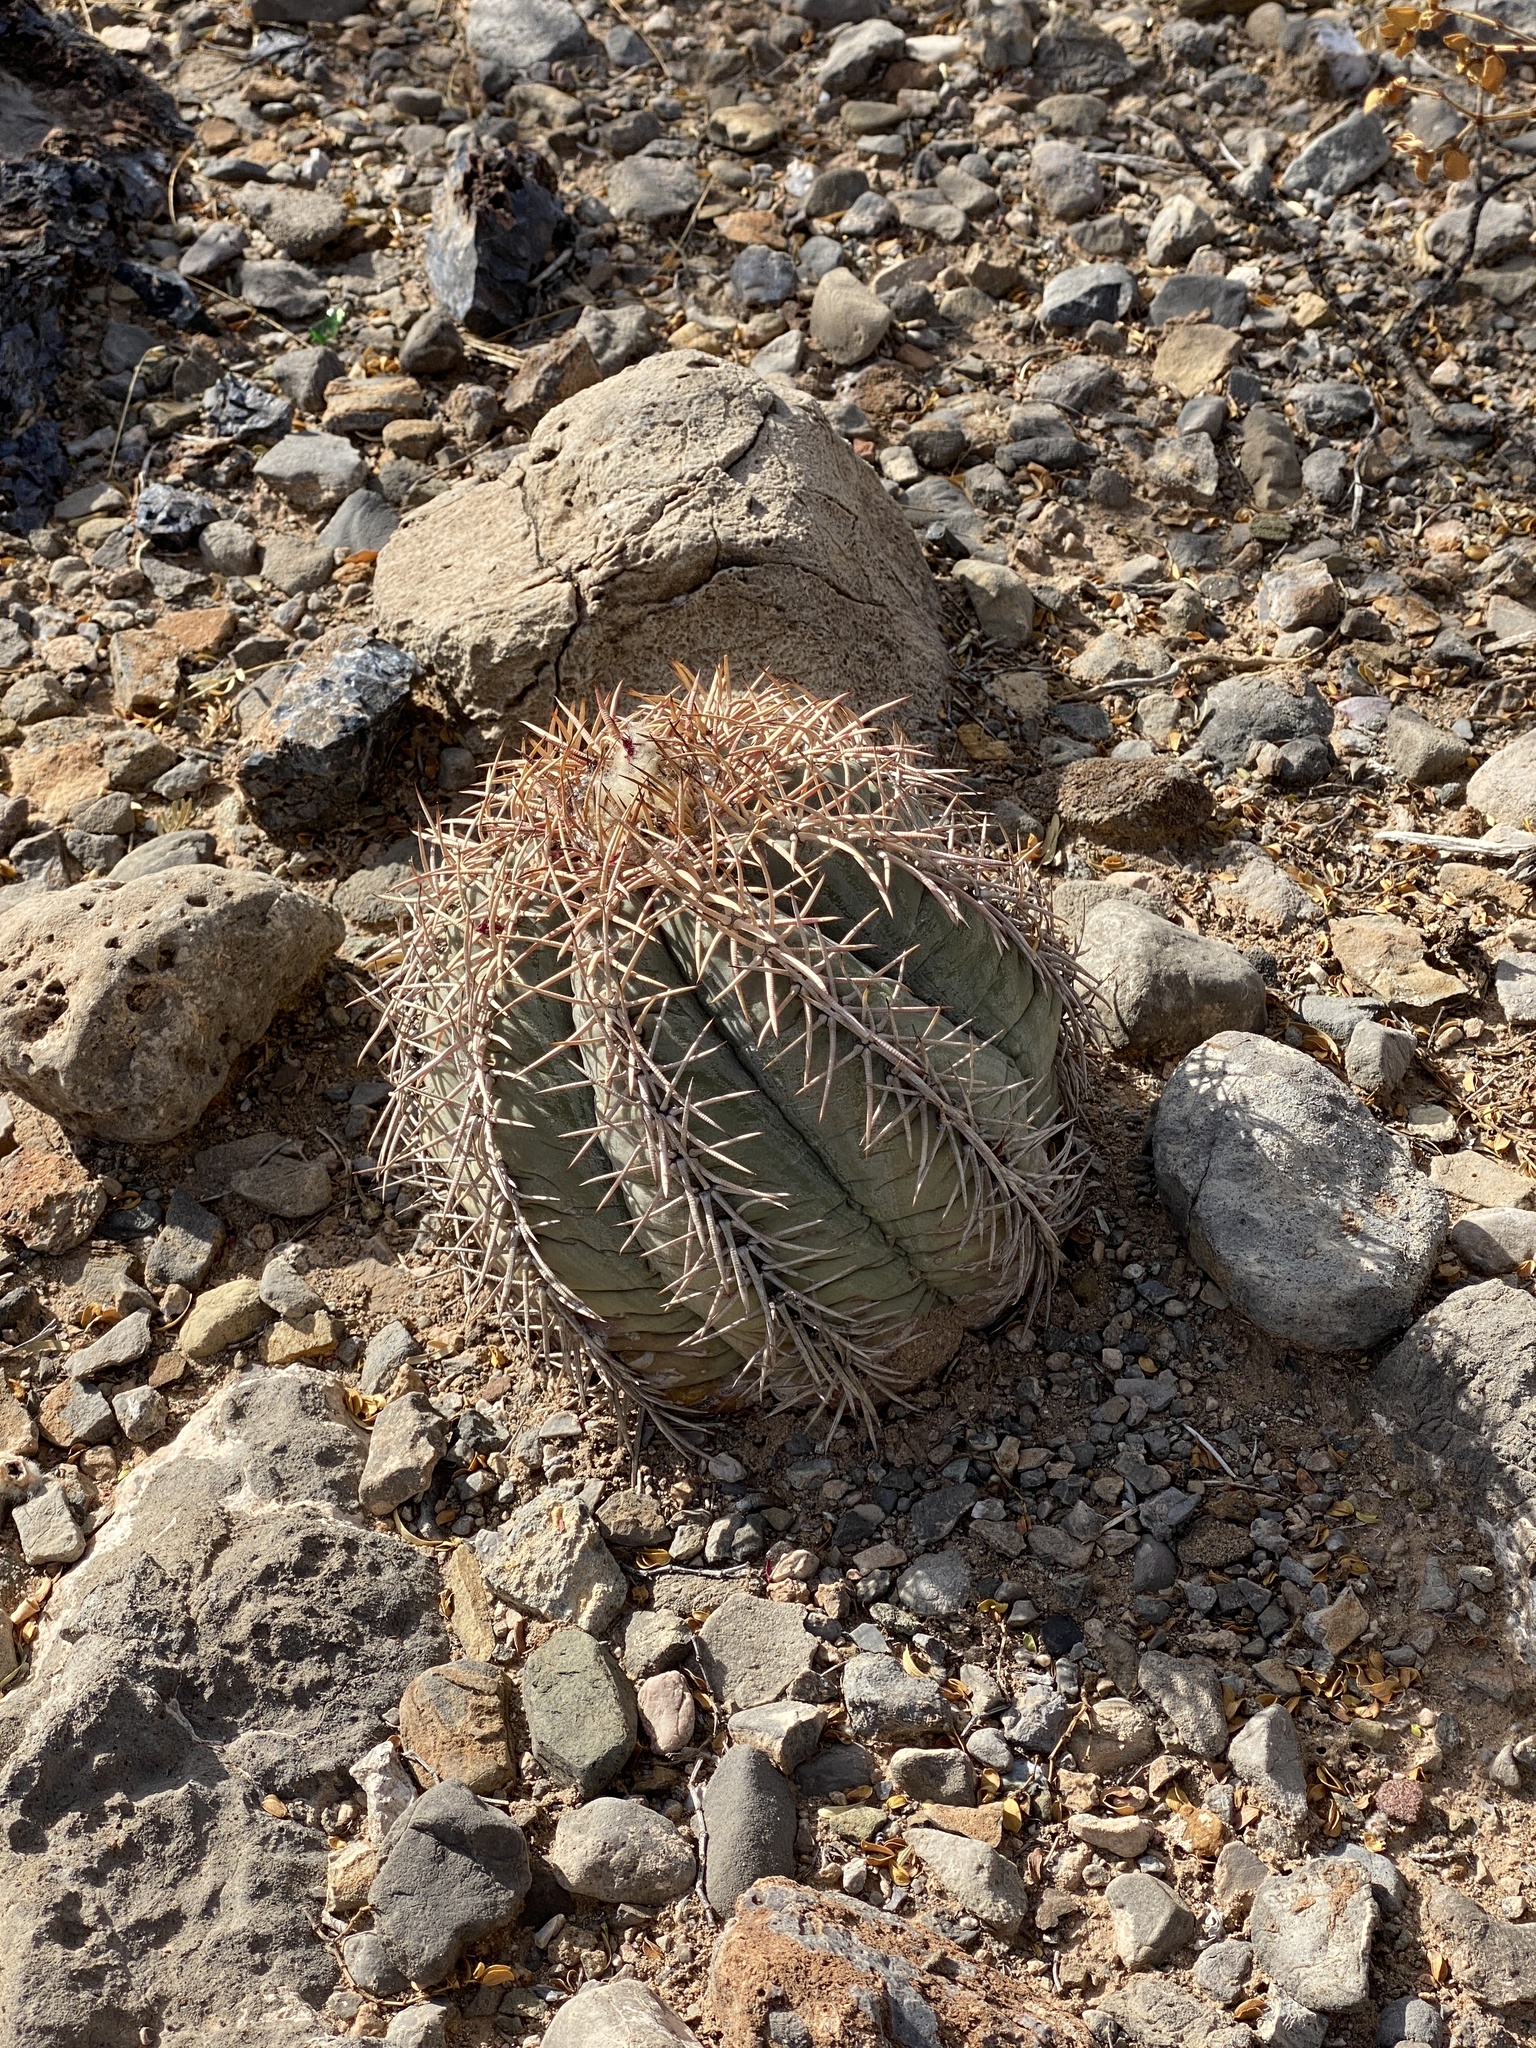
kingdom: Plantae
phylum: Tracheophyta
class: Magnoliopsida
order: Caryophyllales
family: Cactaceae
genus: Echinocactus
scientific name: Echinocactus horizonthalonius
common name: Devilshead
